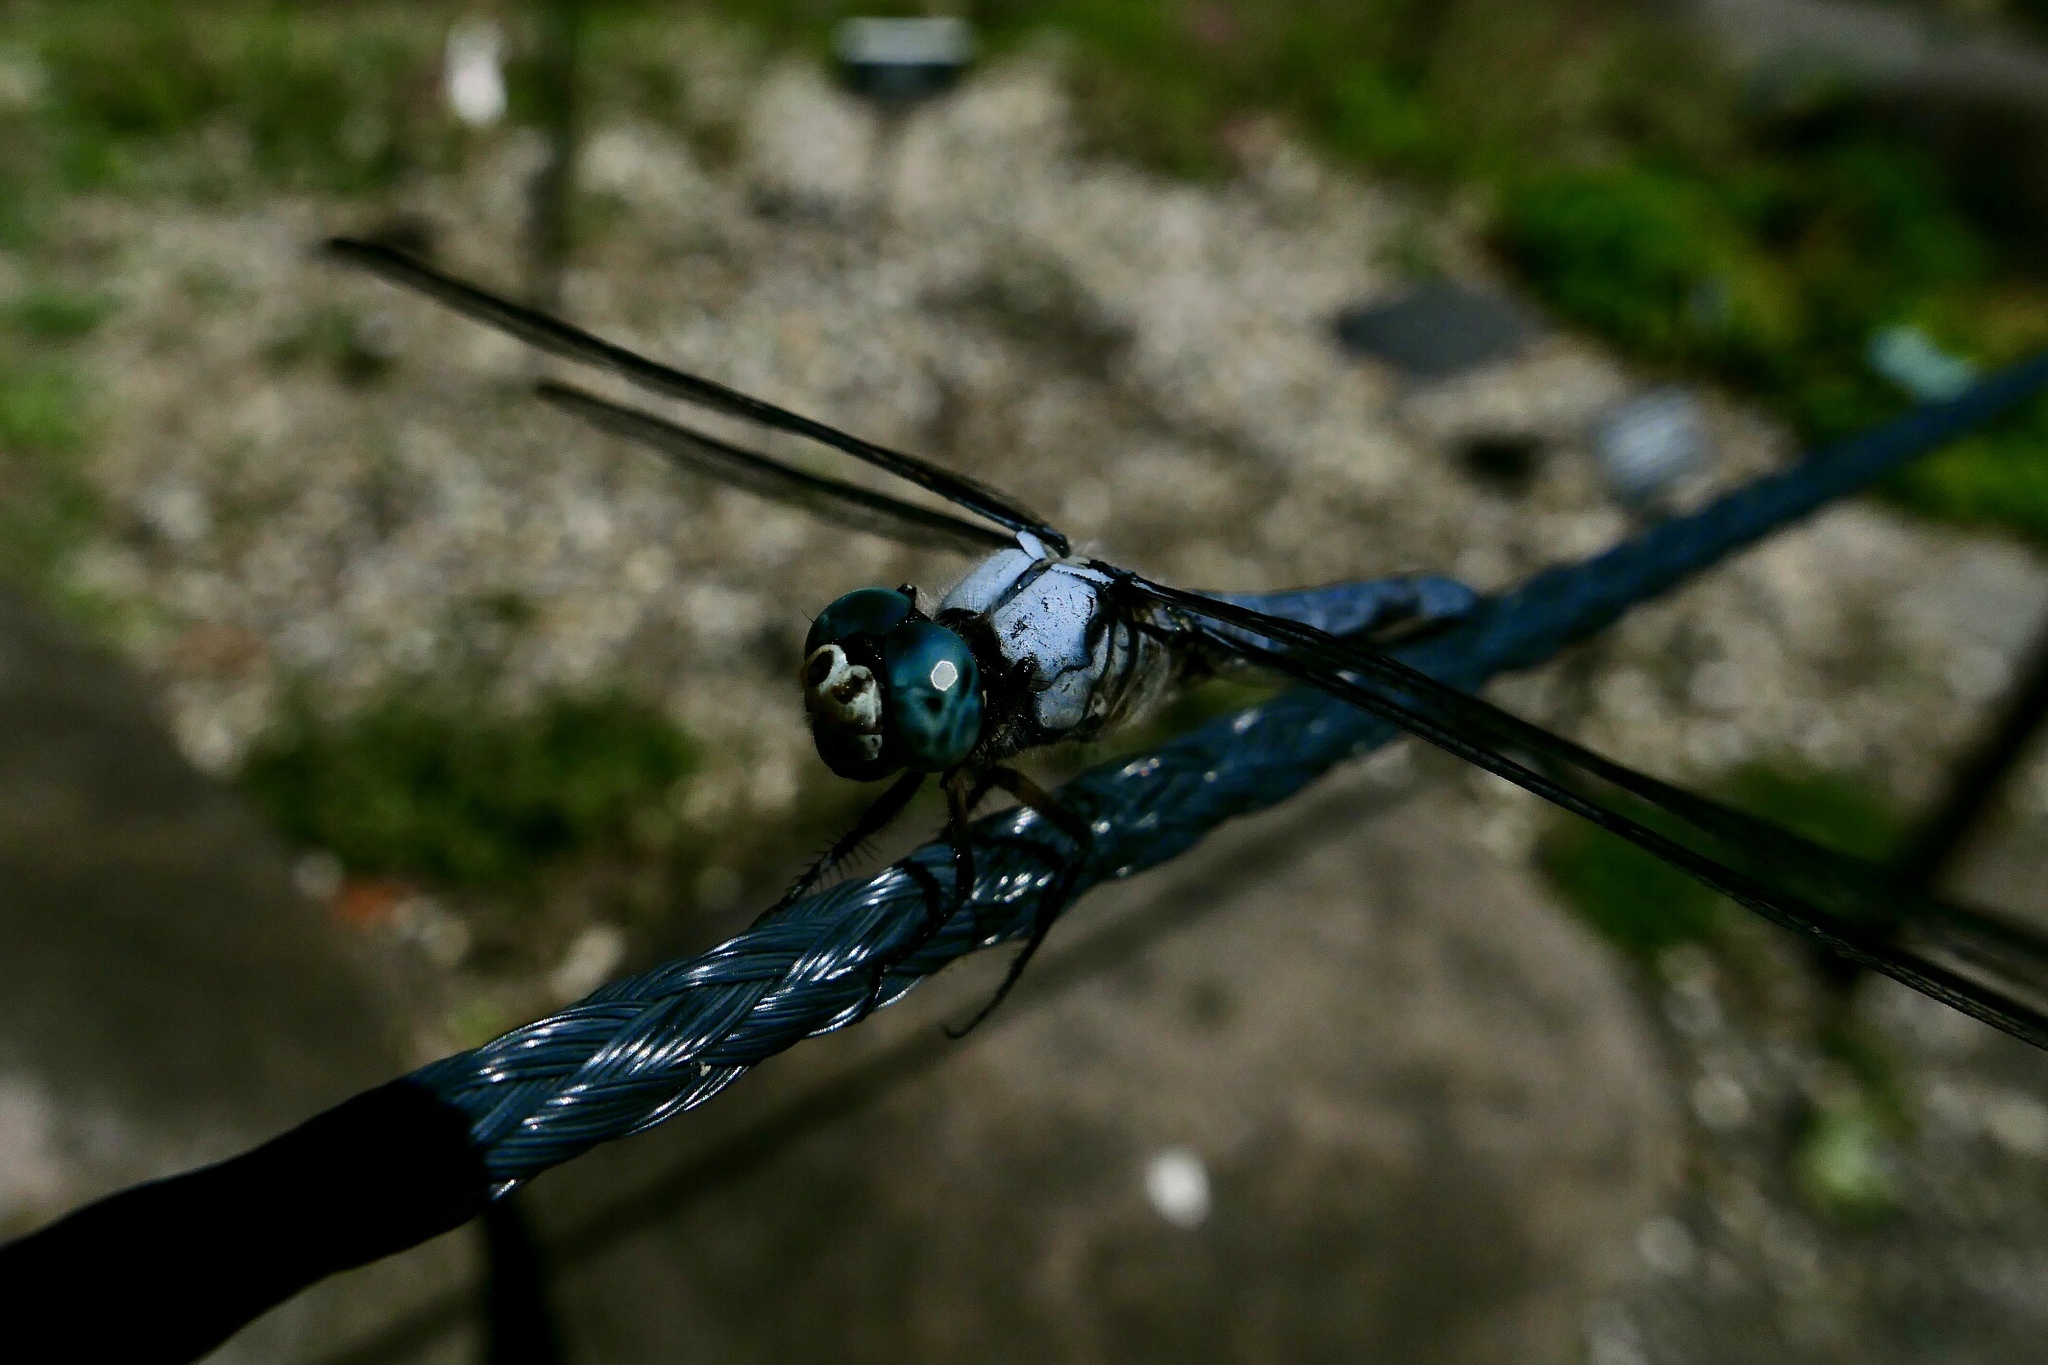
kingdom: Animalia
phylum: Arthropoda
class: Insecta
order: Odonata
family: Libellulidae
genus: Libellula
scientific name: Libellula vibrans
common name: Great blue skimmer
